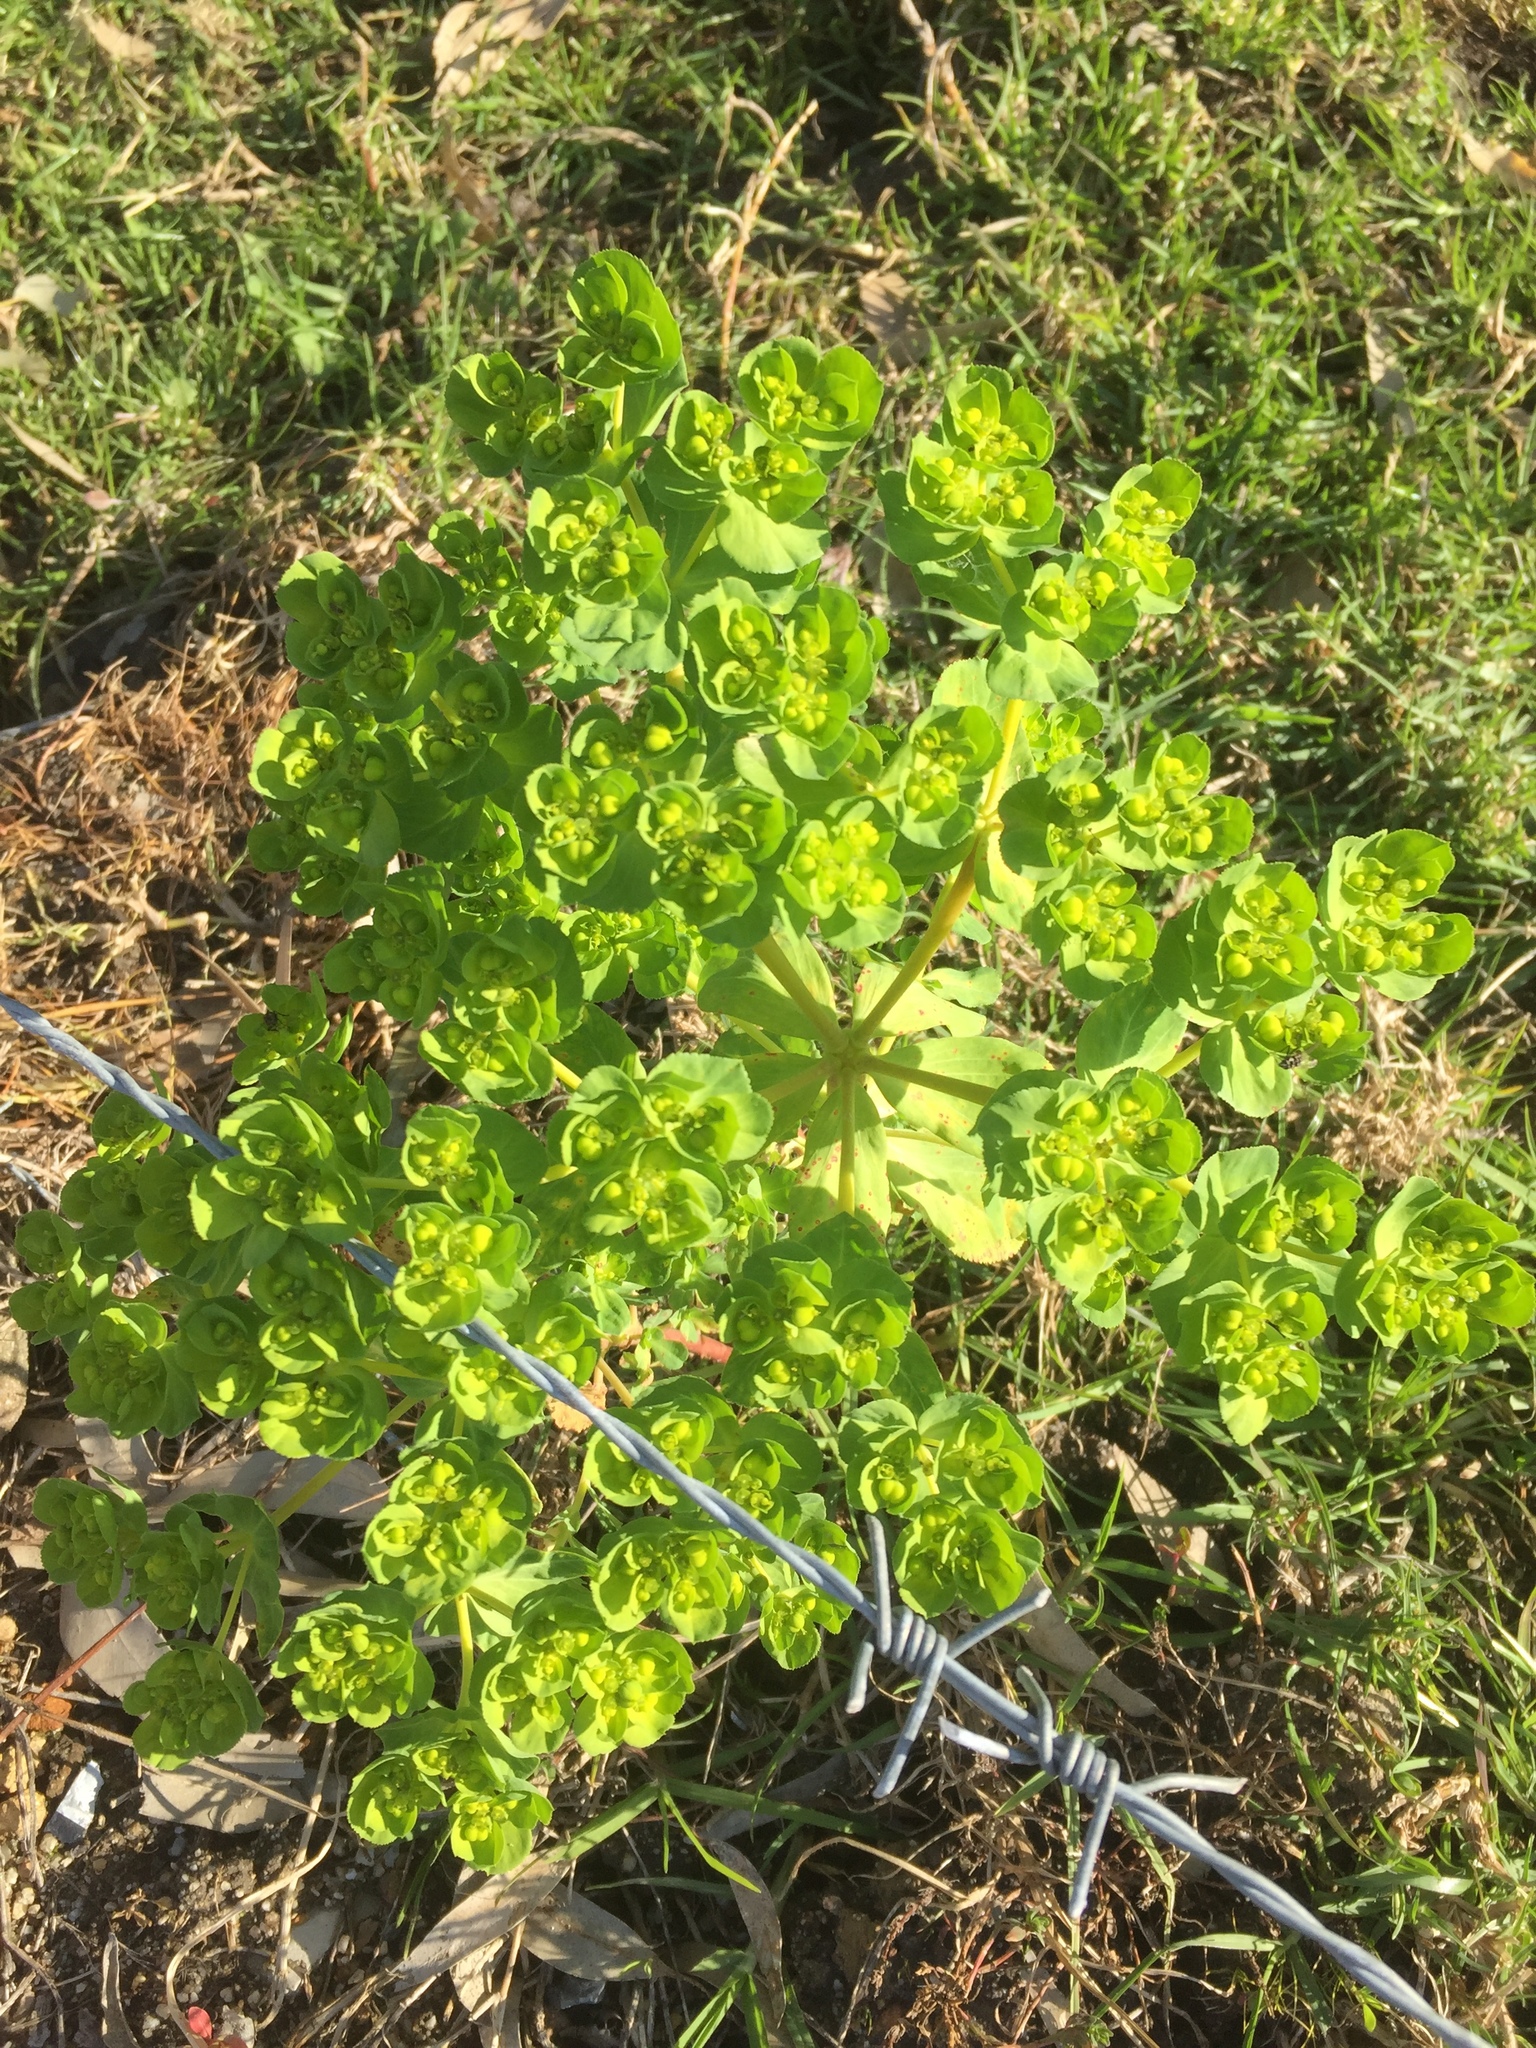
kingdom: Plantae
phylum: Tracheophyta
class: Magnoliopsida
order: Malpighiales
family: Euphorbiaceae
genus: Euphorbia
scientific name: Euphorbia helioscopia
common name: Sun spurge
